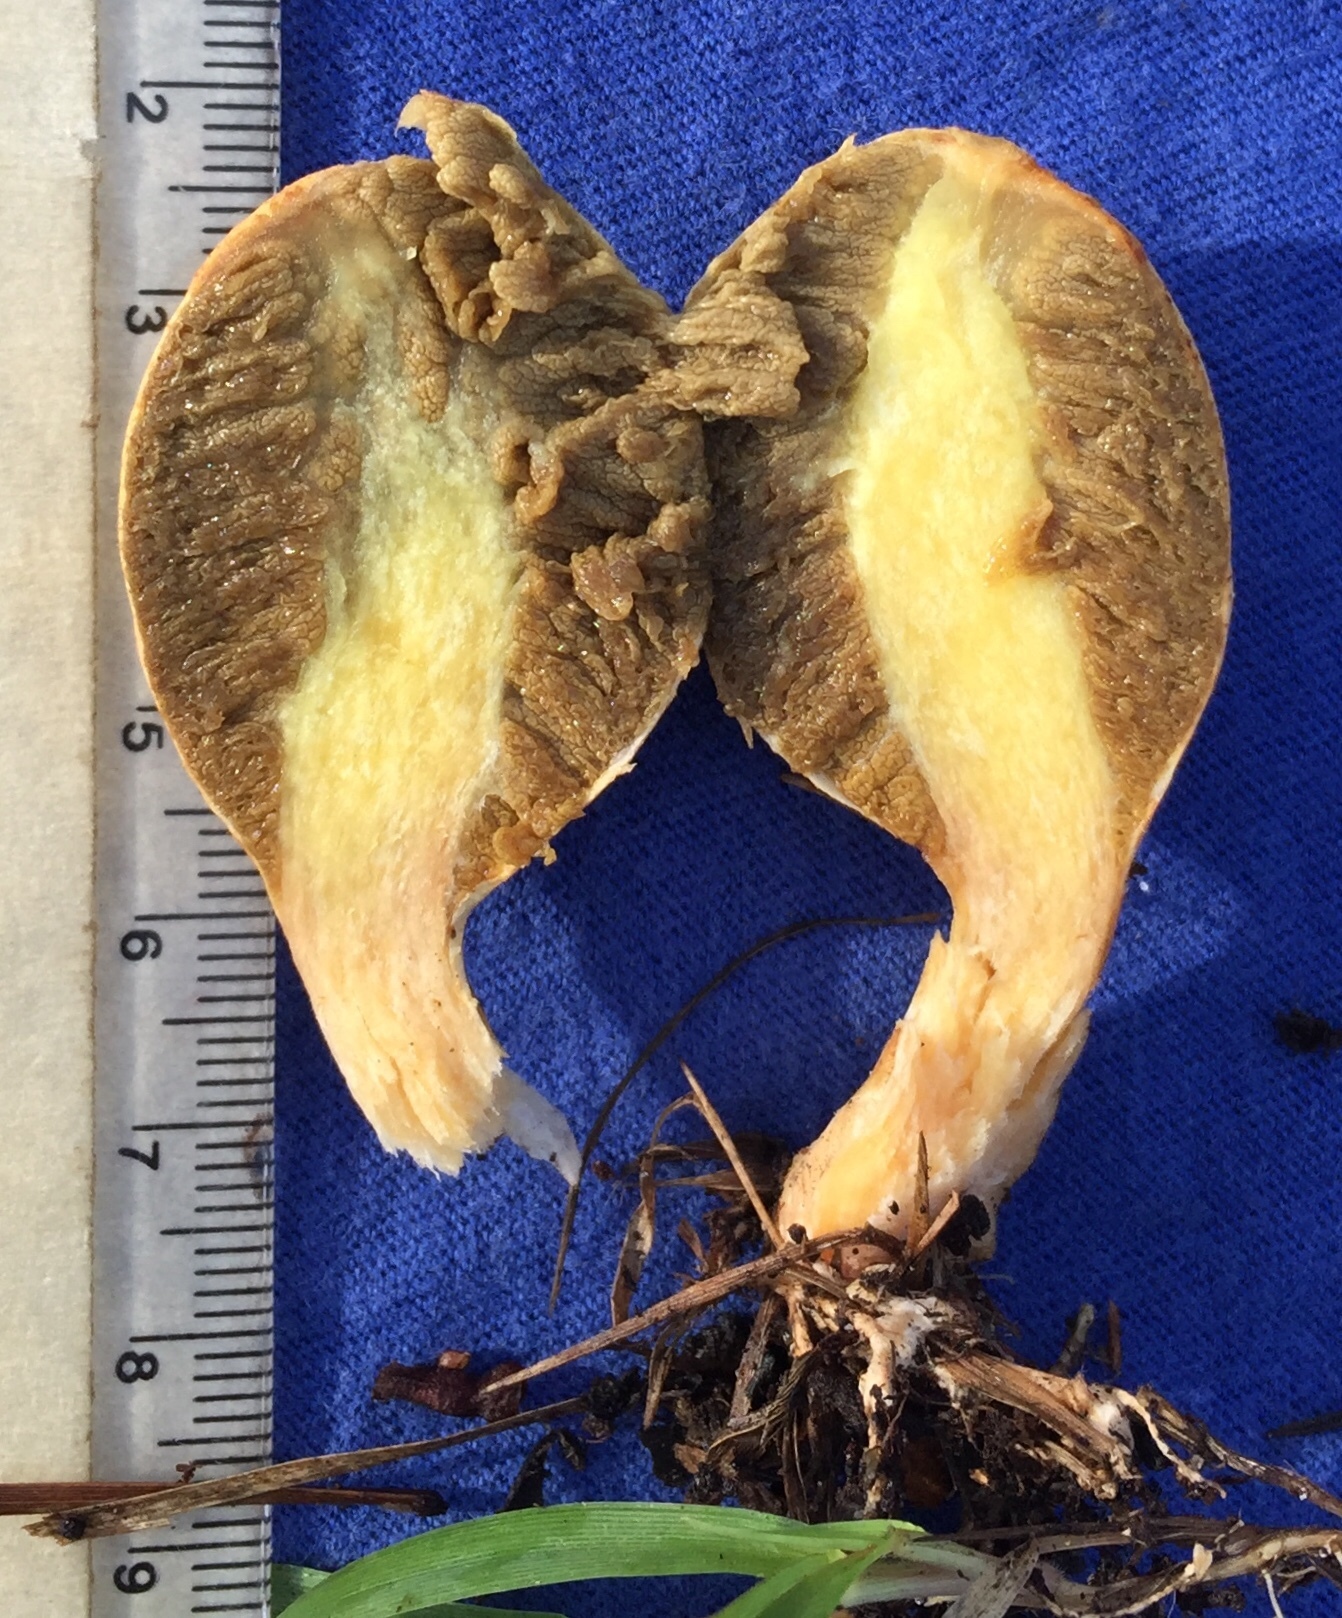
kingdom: Fungi
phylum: Basidiomycota
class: Agaricomycetes
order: Boletales
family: Rhizopogonaceae
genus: Rhopalogaster
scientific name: Rhopalogaster transversarius
